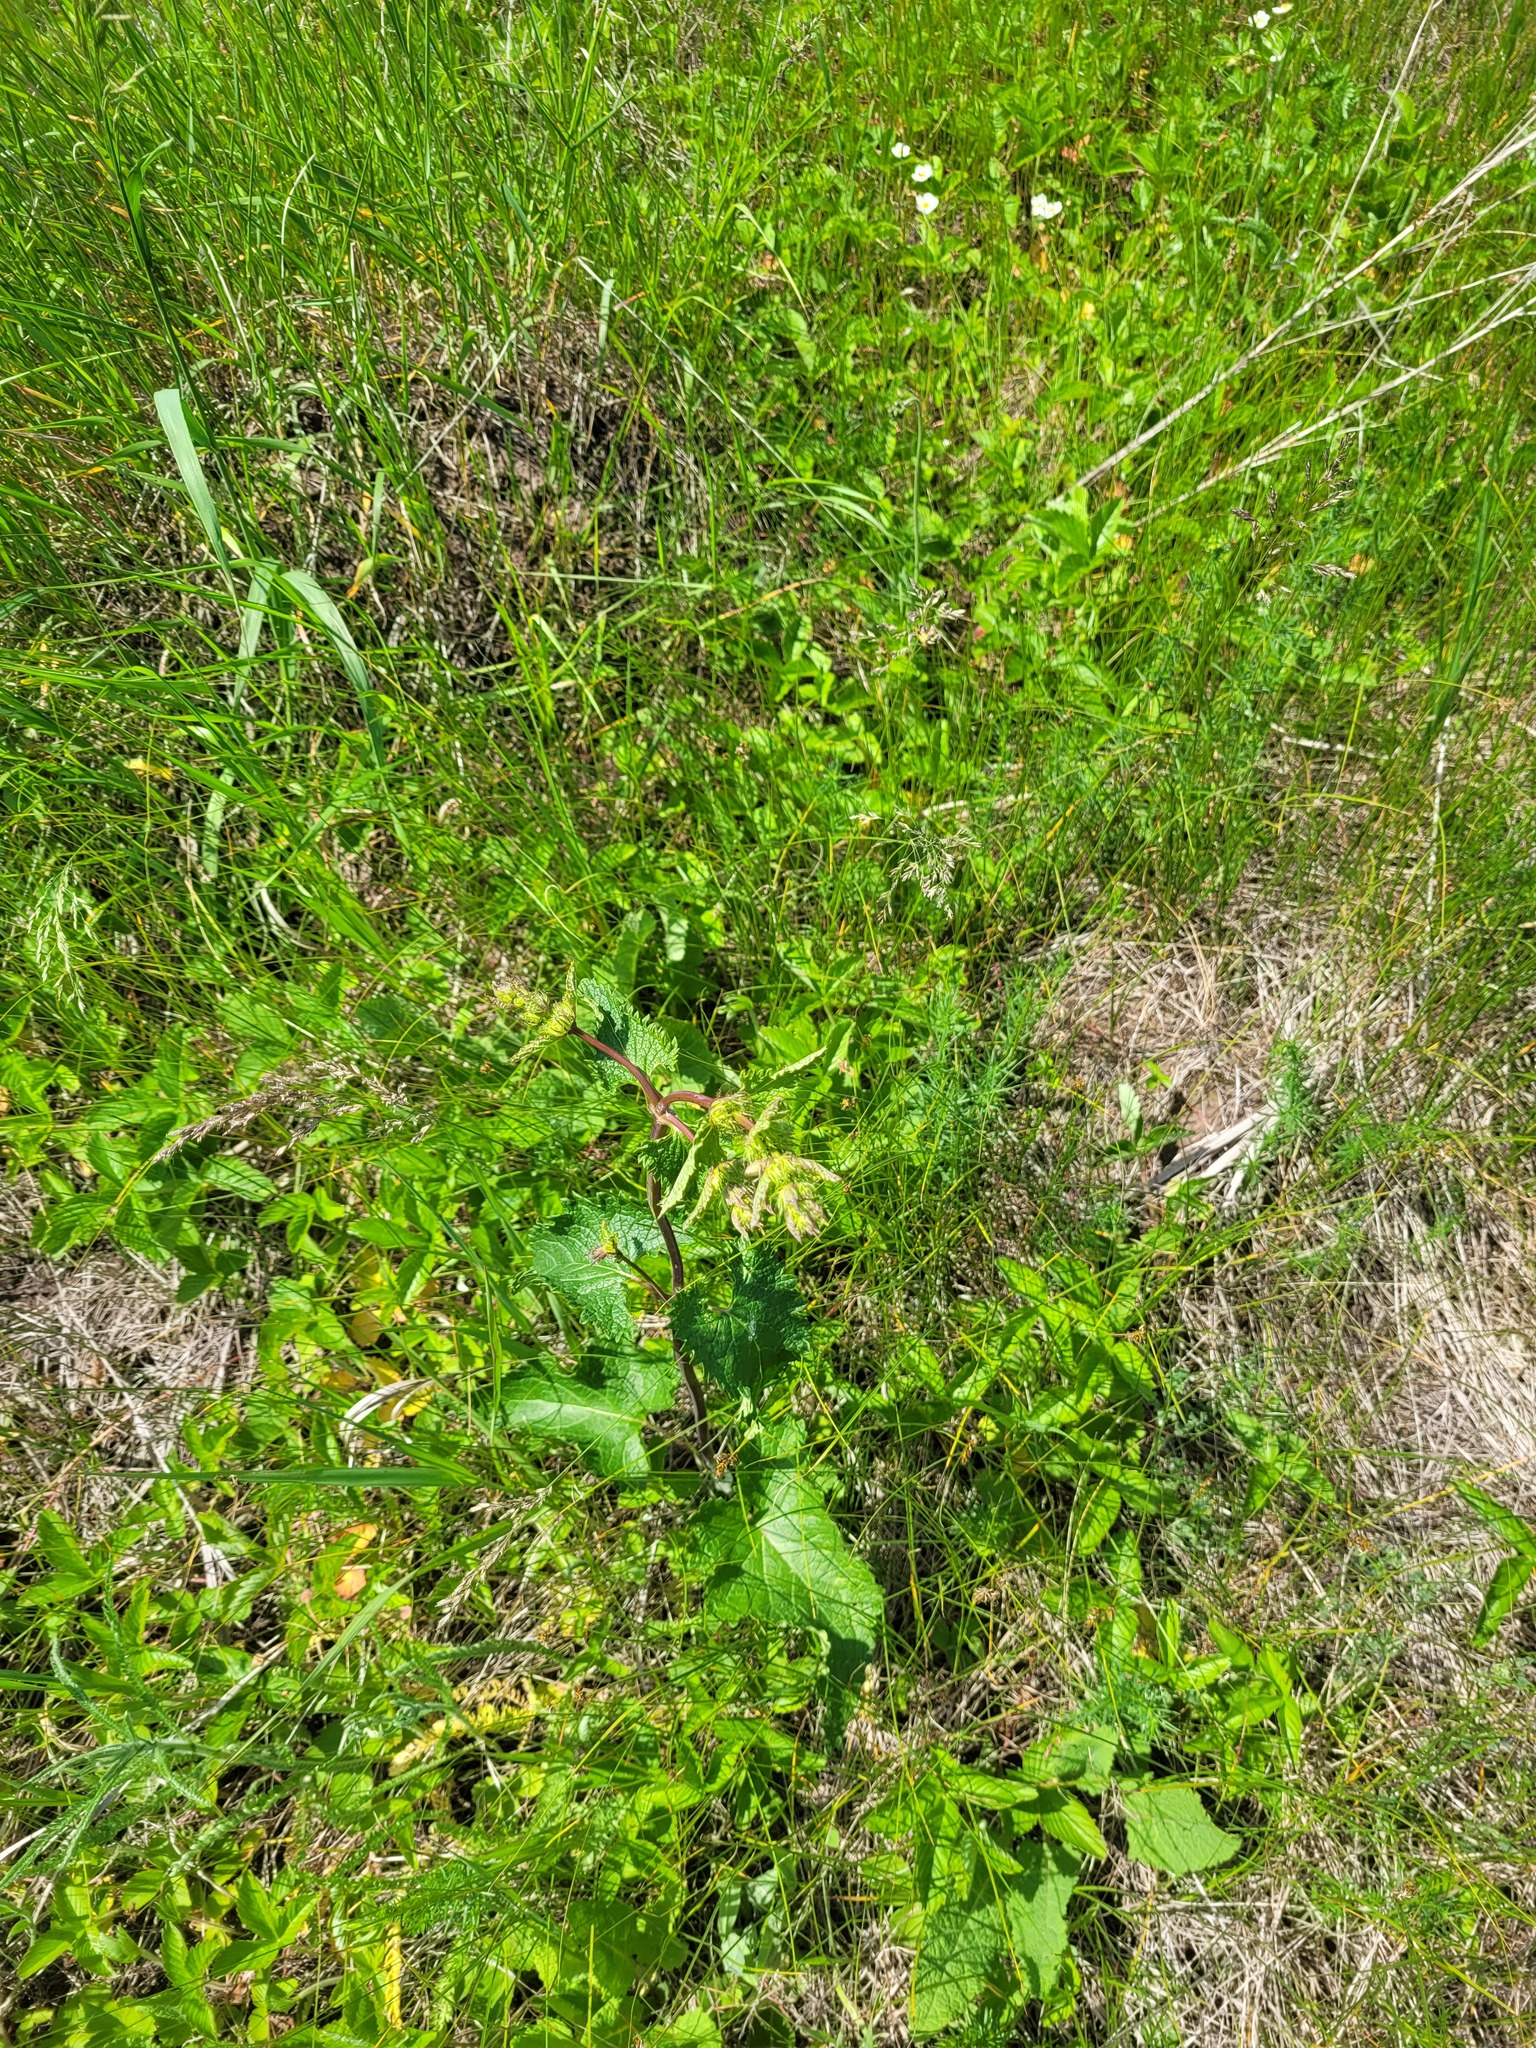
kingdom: Plantae
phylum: Tracheophyta
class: Magnoliopsida
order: Lamiales
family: Lamiaceae
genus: Phlomoides
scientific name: Phlomoides tuberosa
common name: Tuberous jerusalem sage
